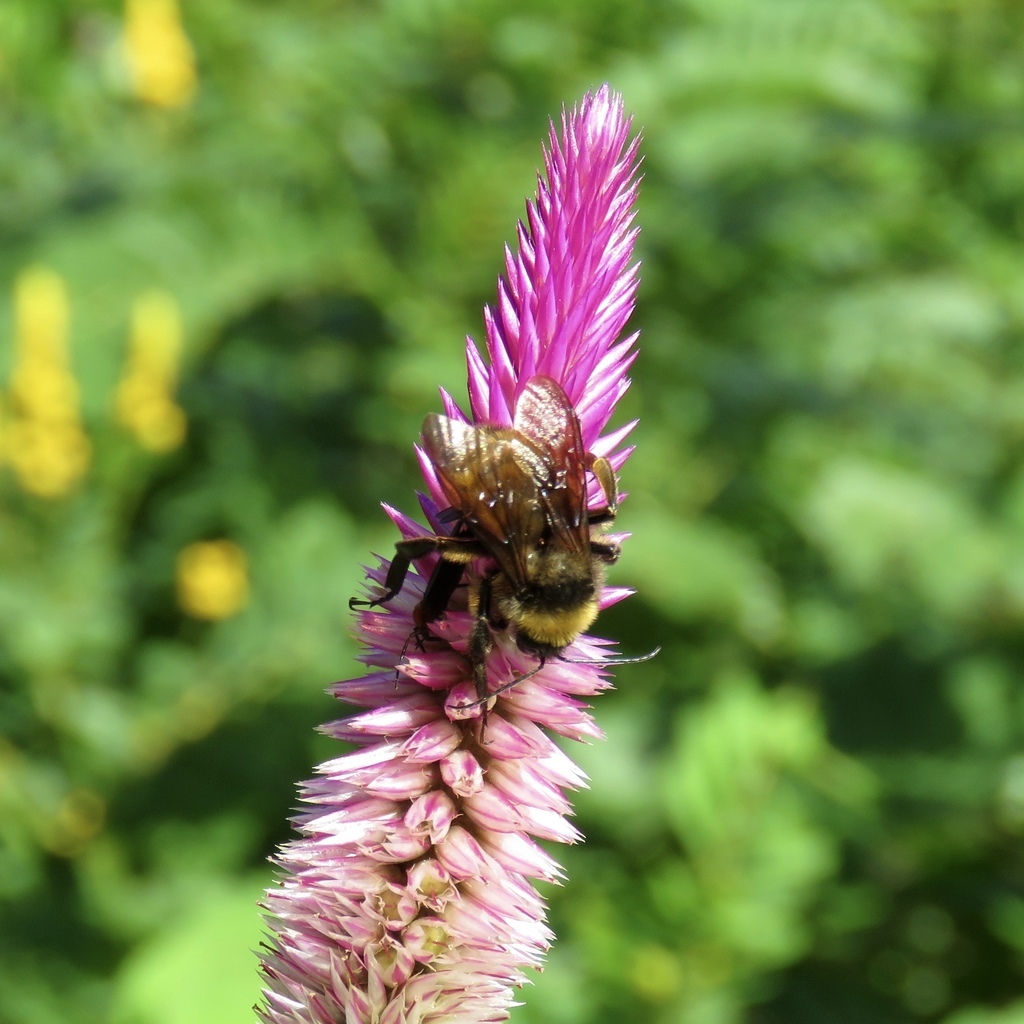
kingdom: Animalia
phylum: Arthropoda
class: Insecta
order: Hymenoptera
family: Apidae
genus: Bombus
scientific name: Bombus pensylvanicus
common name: Bumble bee
